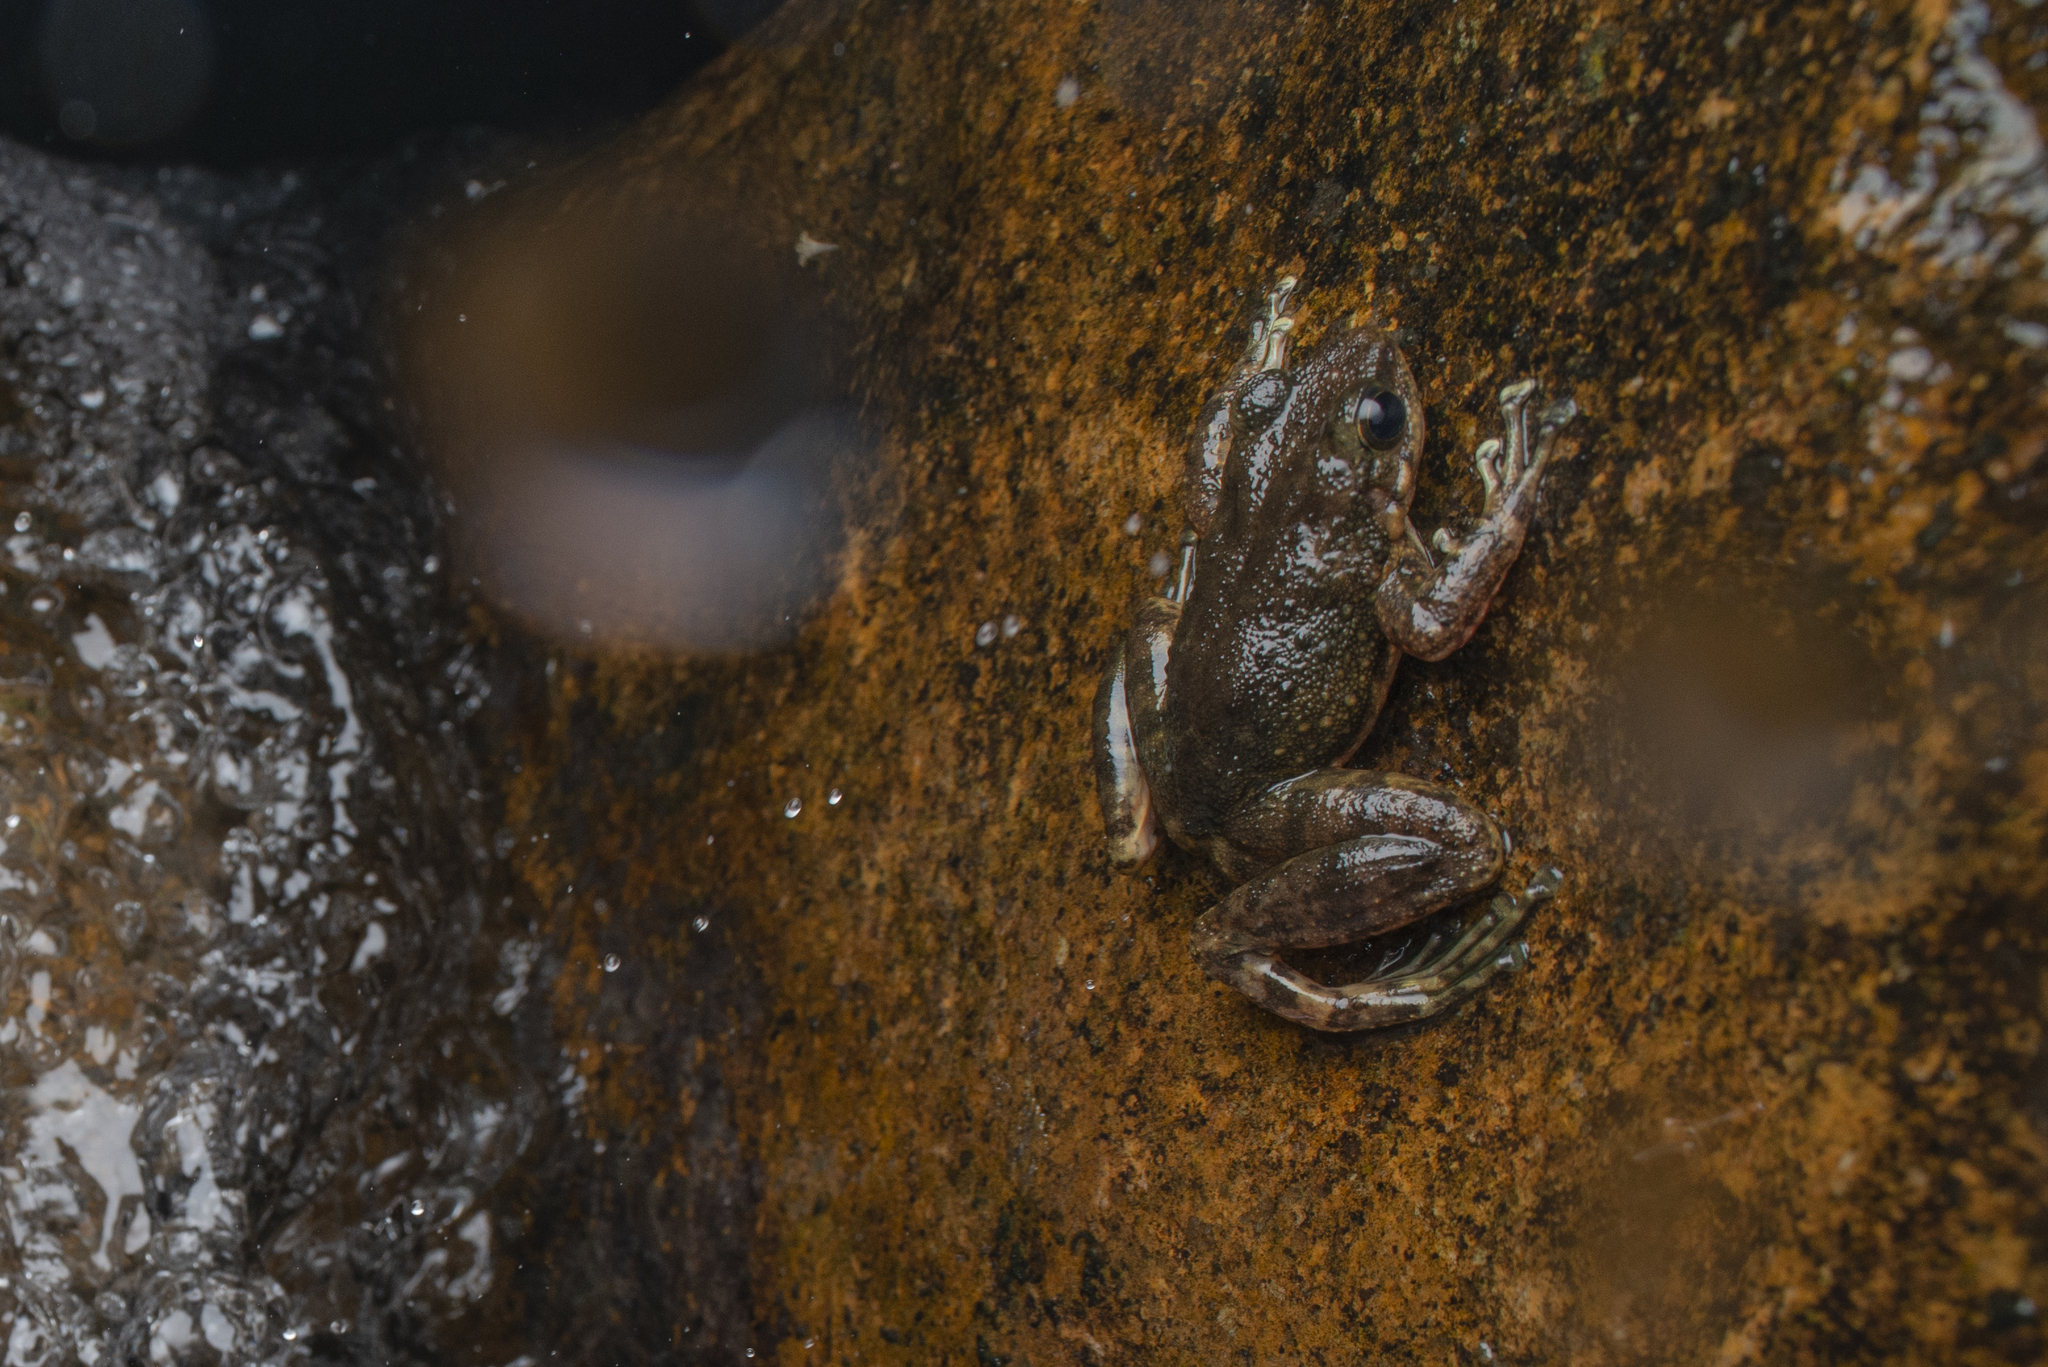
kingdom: Animalia
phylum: Chordata
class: Amphibia
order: Anura
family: Ranidae
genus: Amolops
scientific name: Amolops albispinus
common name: White-spined cascade frog
